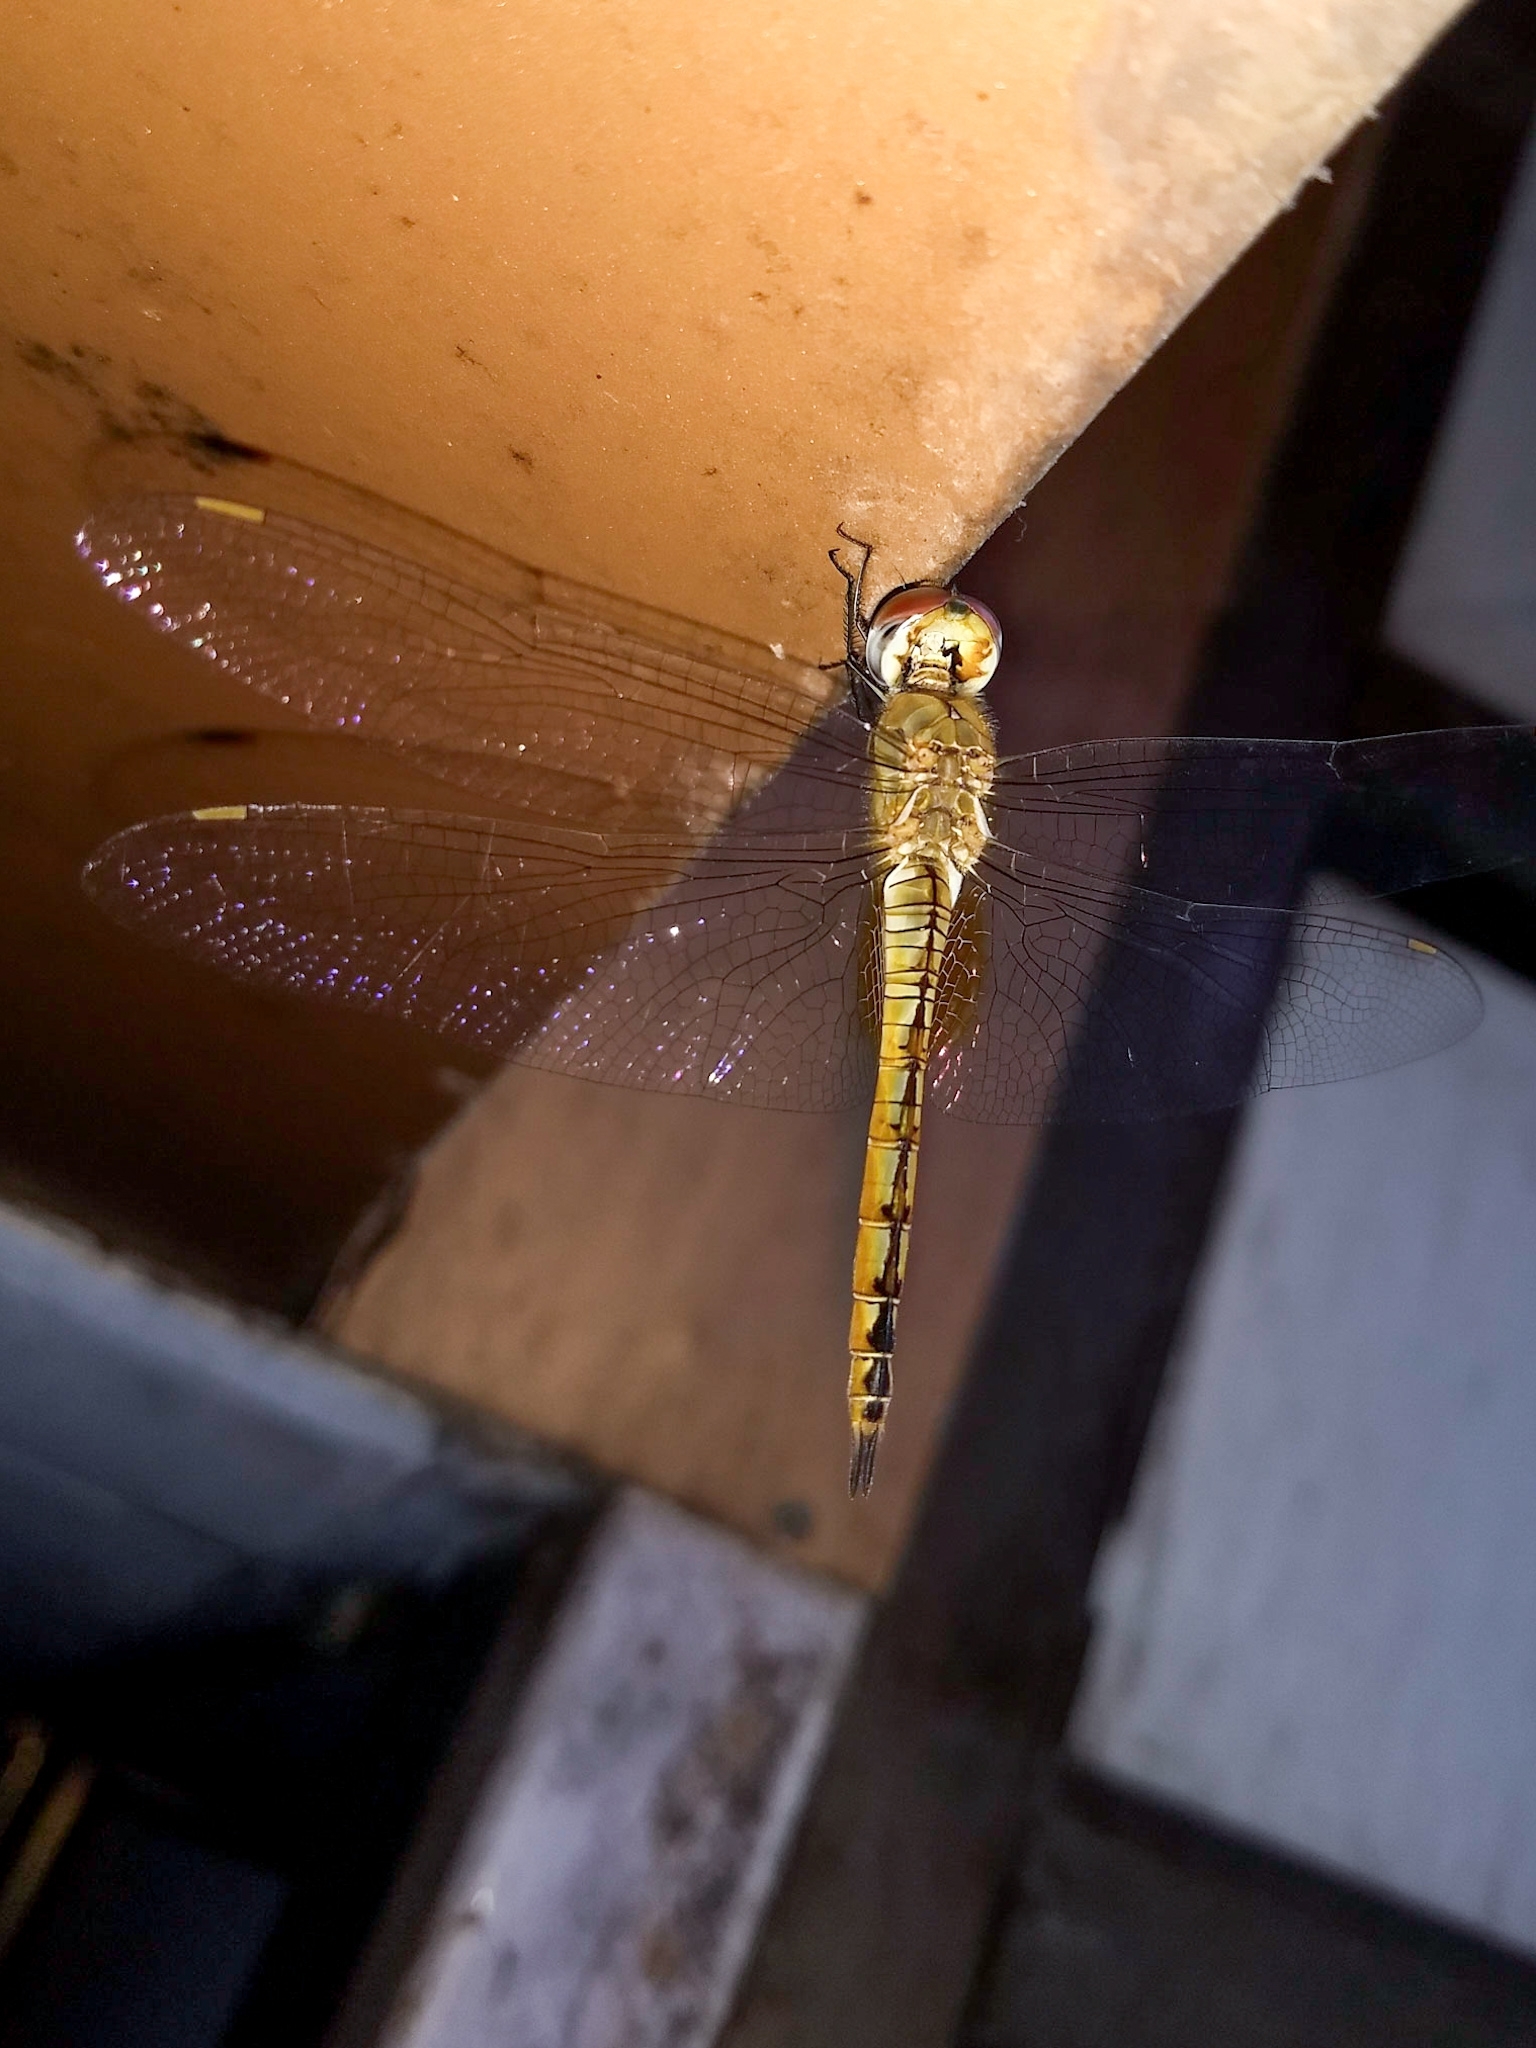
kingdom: Animalia
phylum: Arthropoda
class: Insecta
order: Odonata
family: Libellulidae
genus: Pantala
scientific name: Pantala flavescens
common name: Wandering glider
